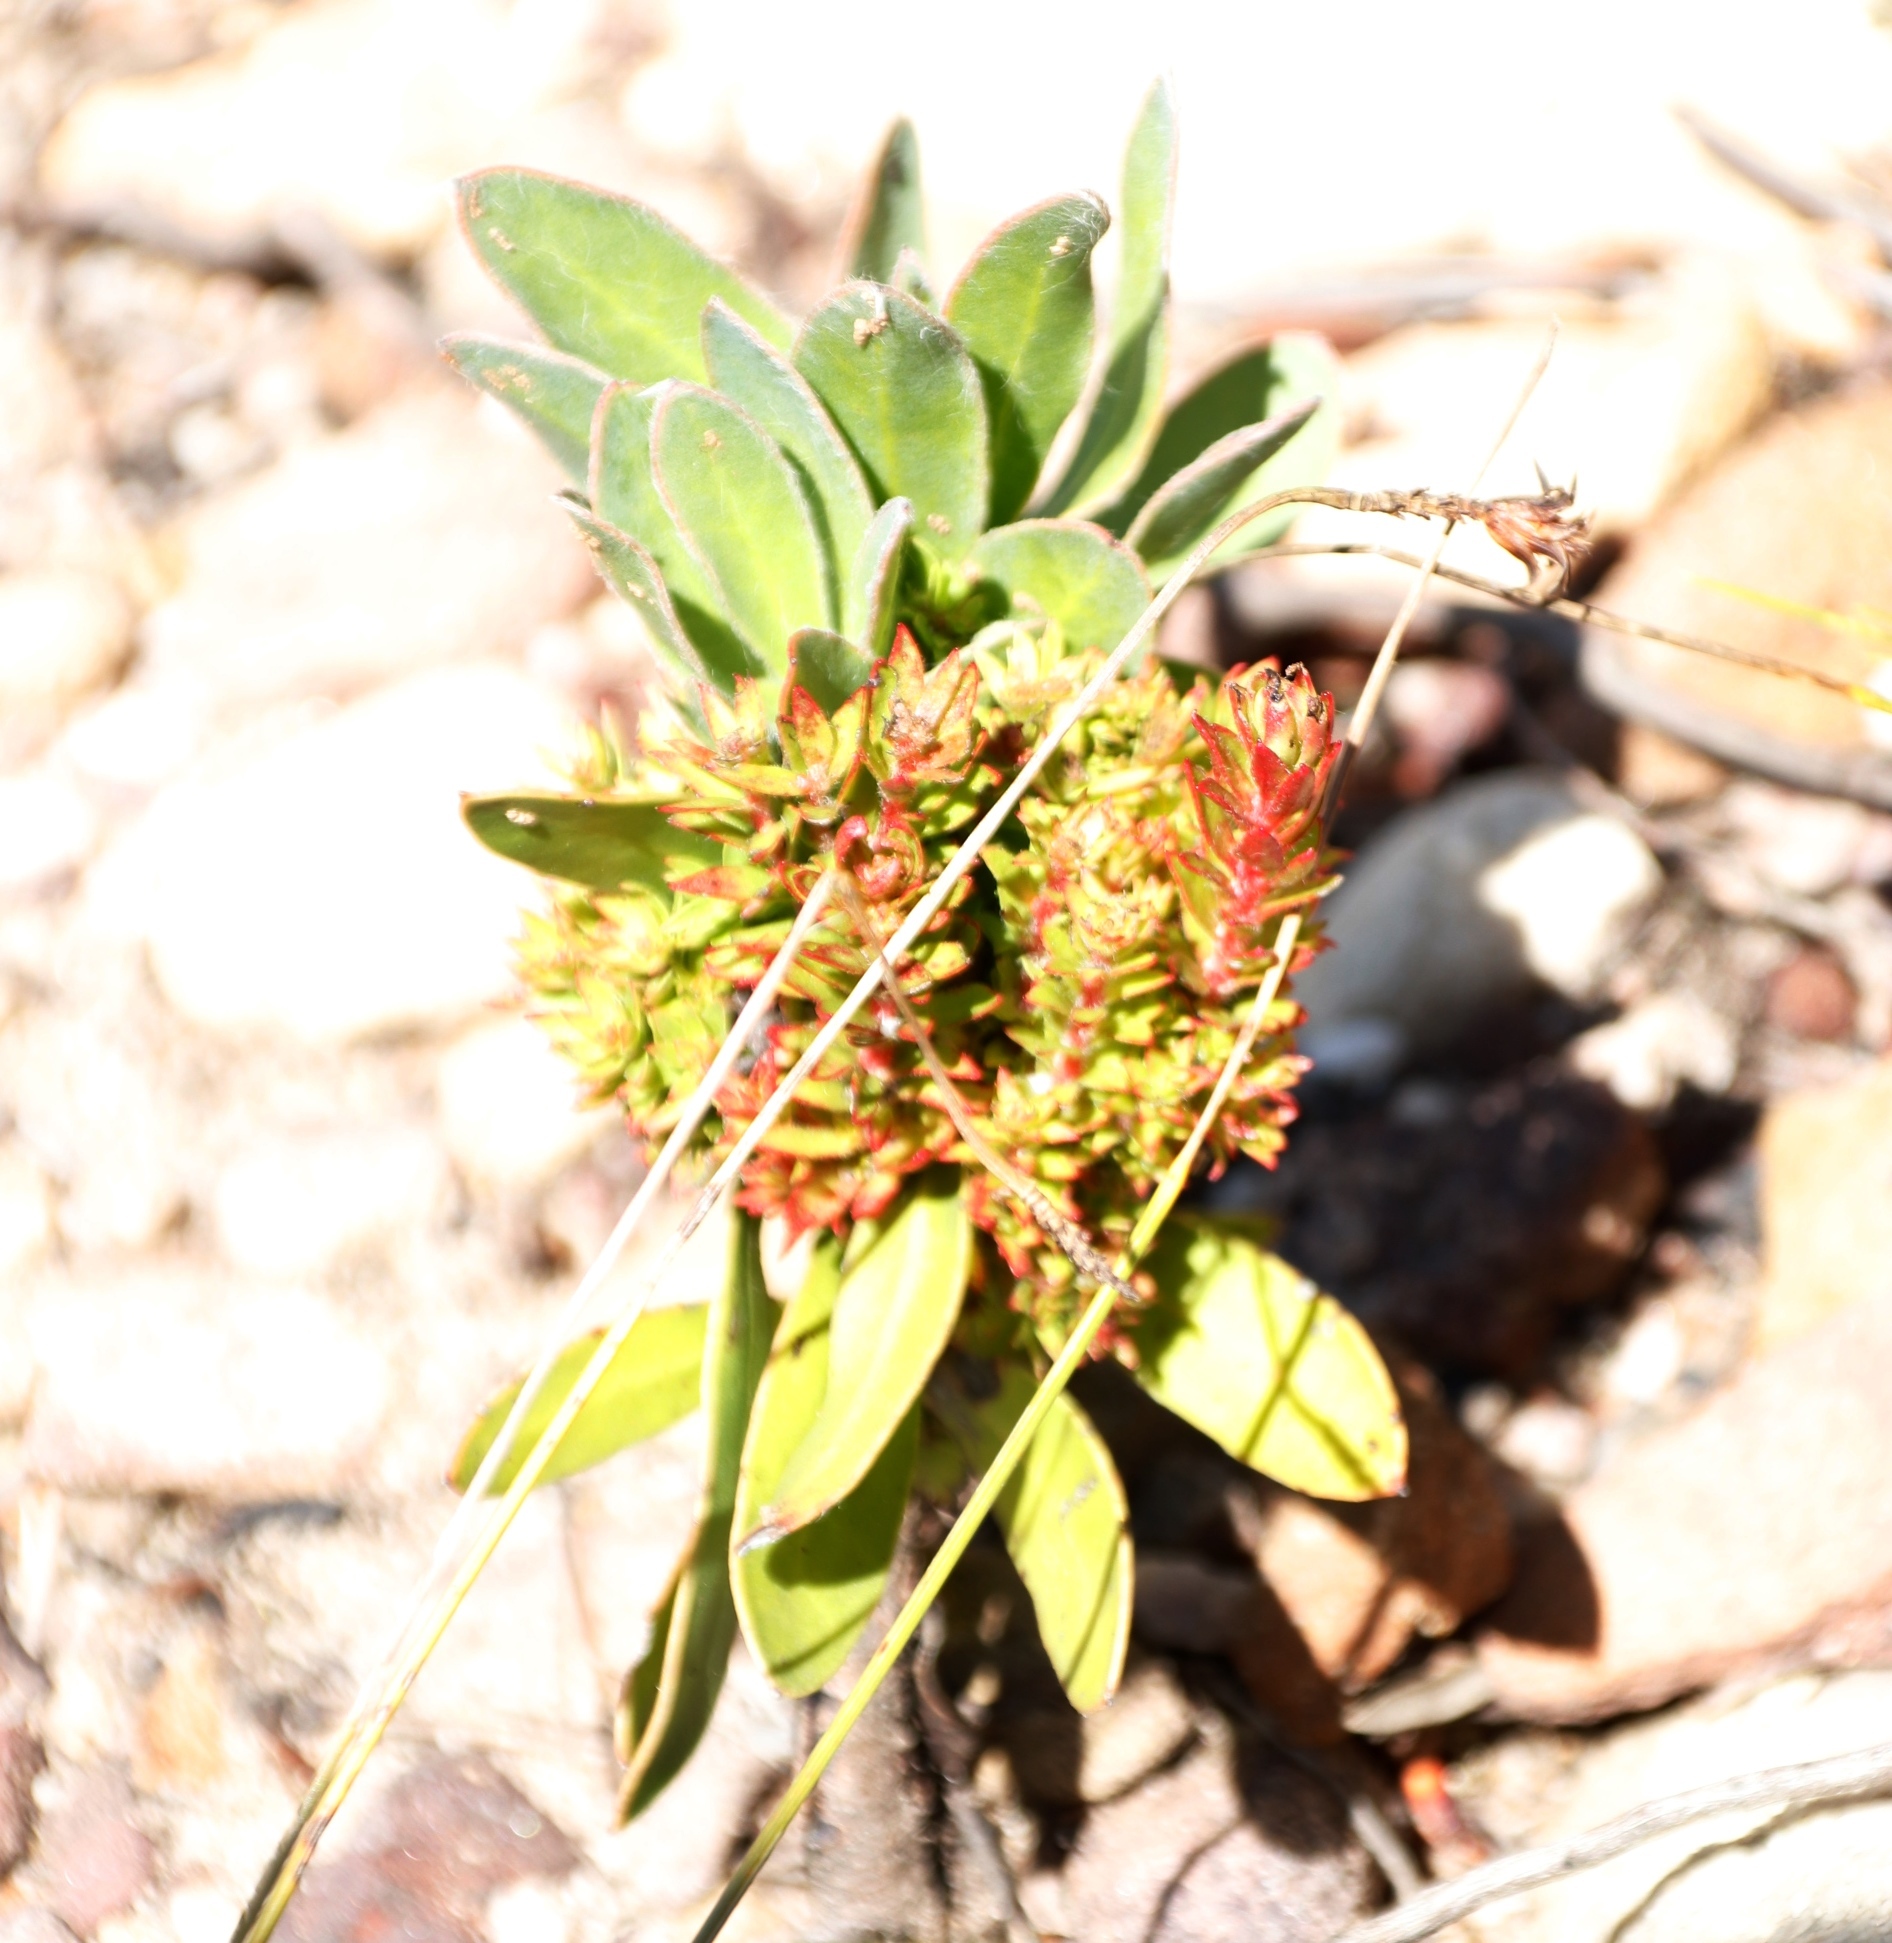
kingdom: Plantae
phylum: Tracheophyta
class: Magnoliopsida
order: Proteales
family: Proteaceae
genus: Protea
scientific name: Protea cynaroides
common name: King protea
